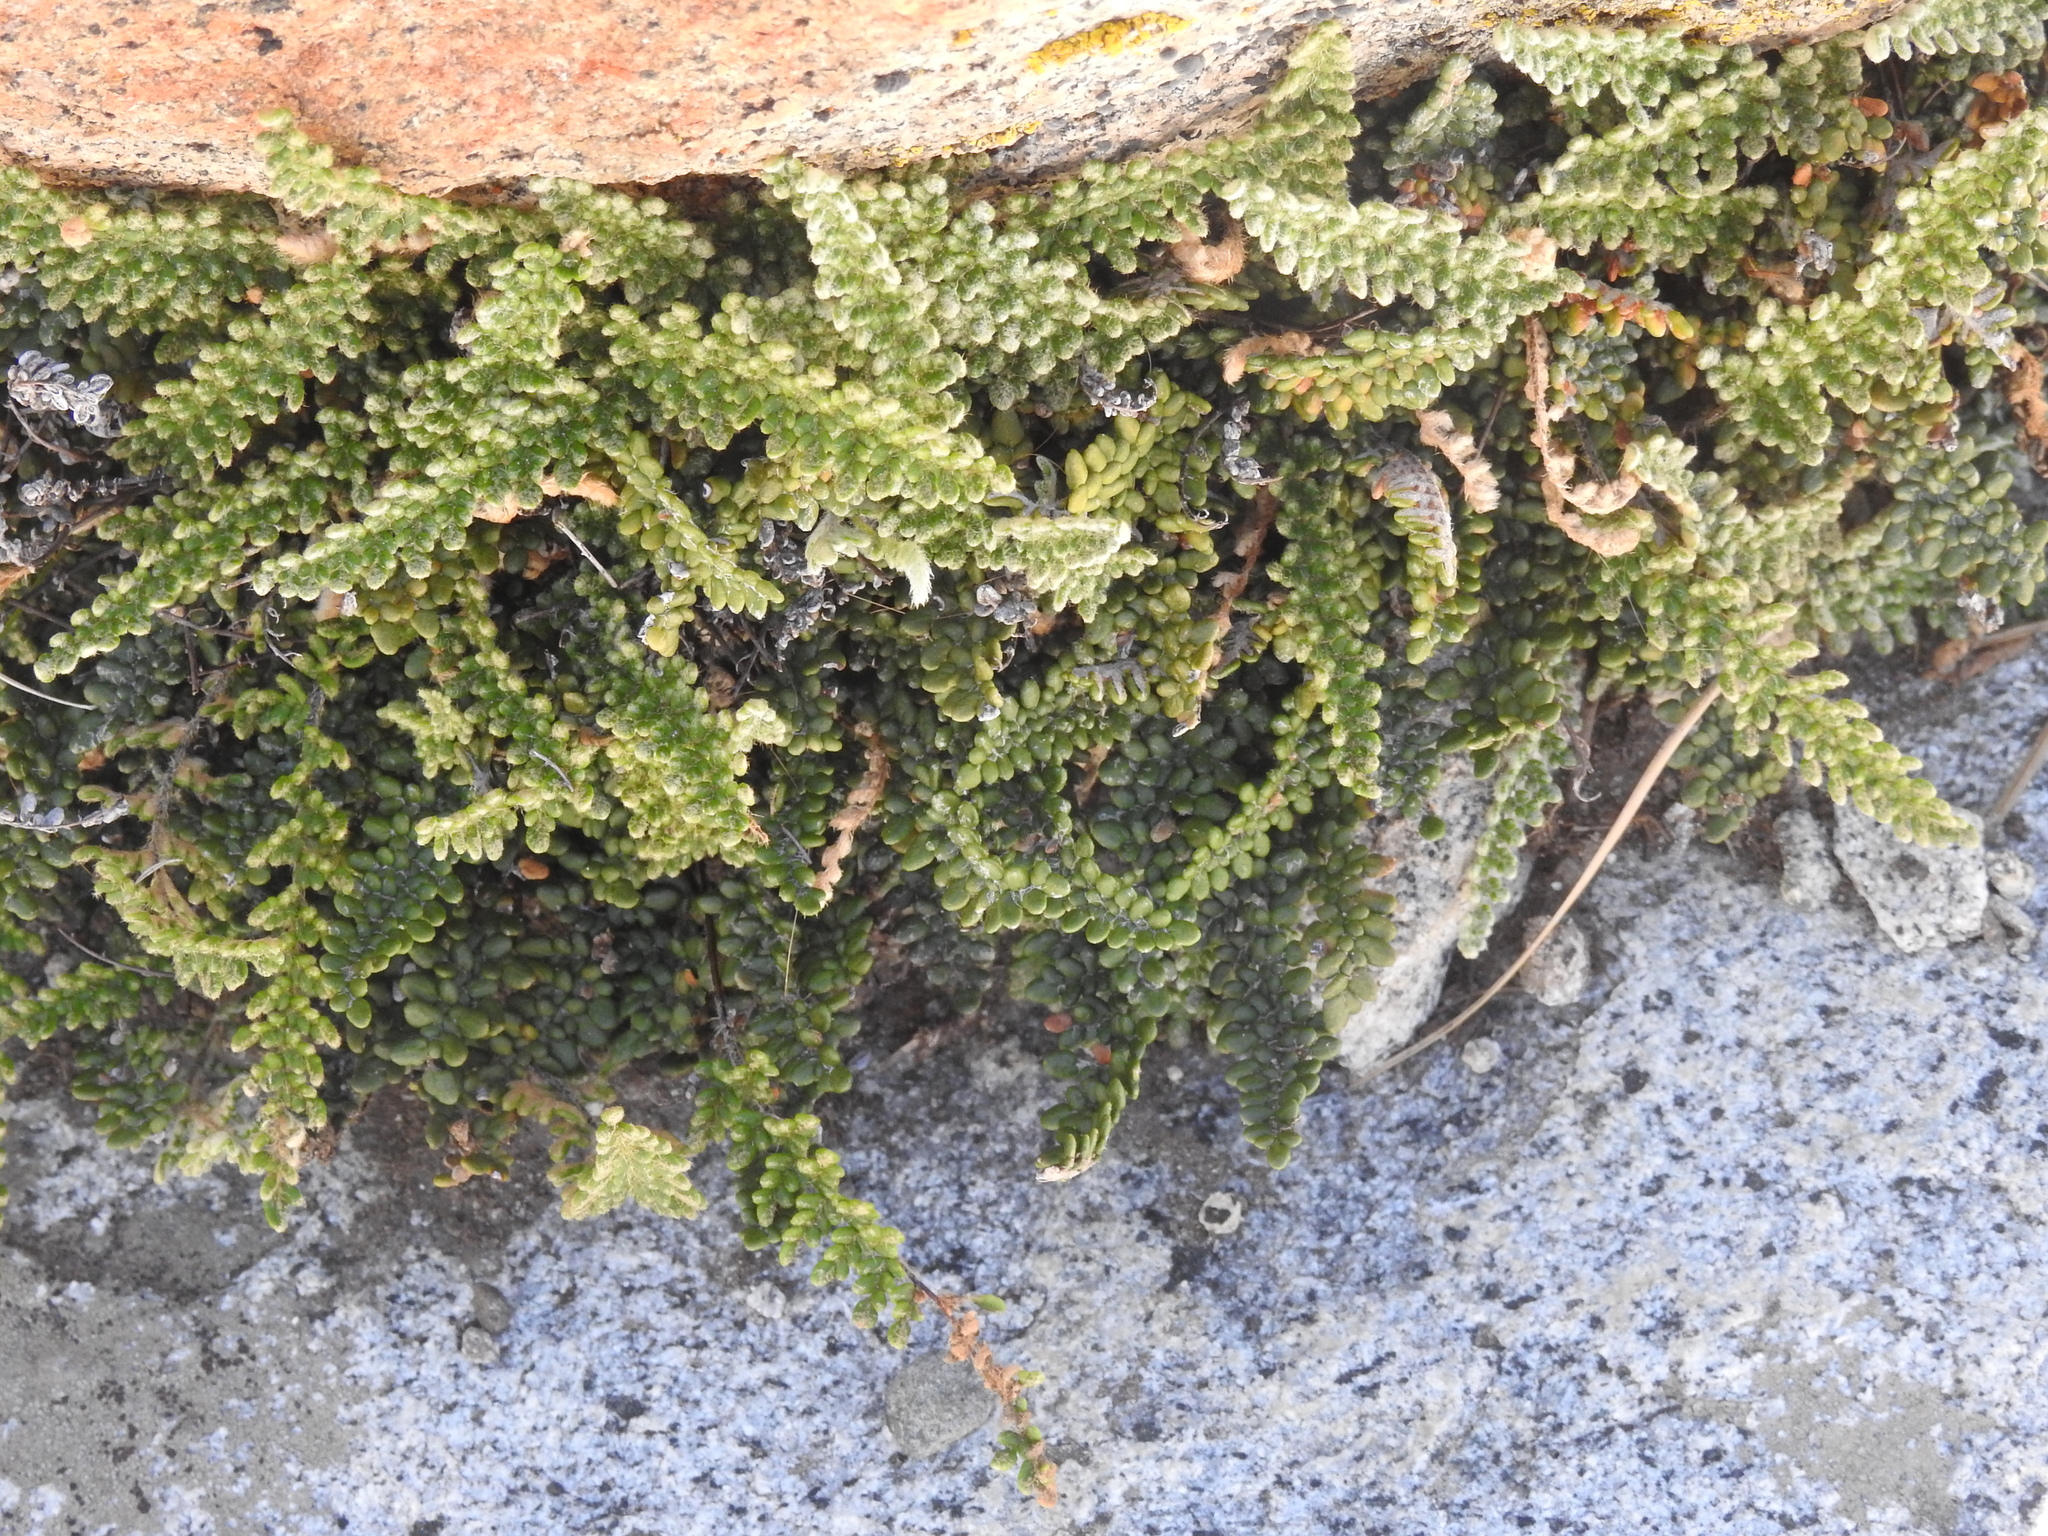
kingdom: Plantae
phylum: Tracheophyta
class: Polypodiopsida
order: Polypodiales
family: Pteridaceae
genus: Myriopteris
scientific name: Myriopteris gracillima
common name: Lace fern
